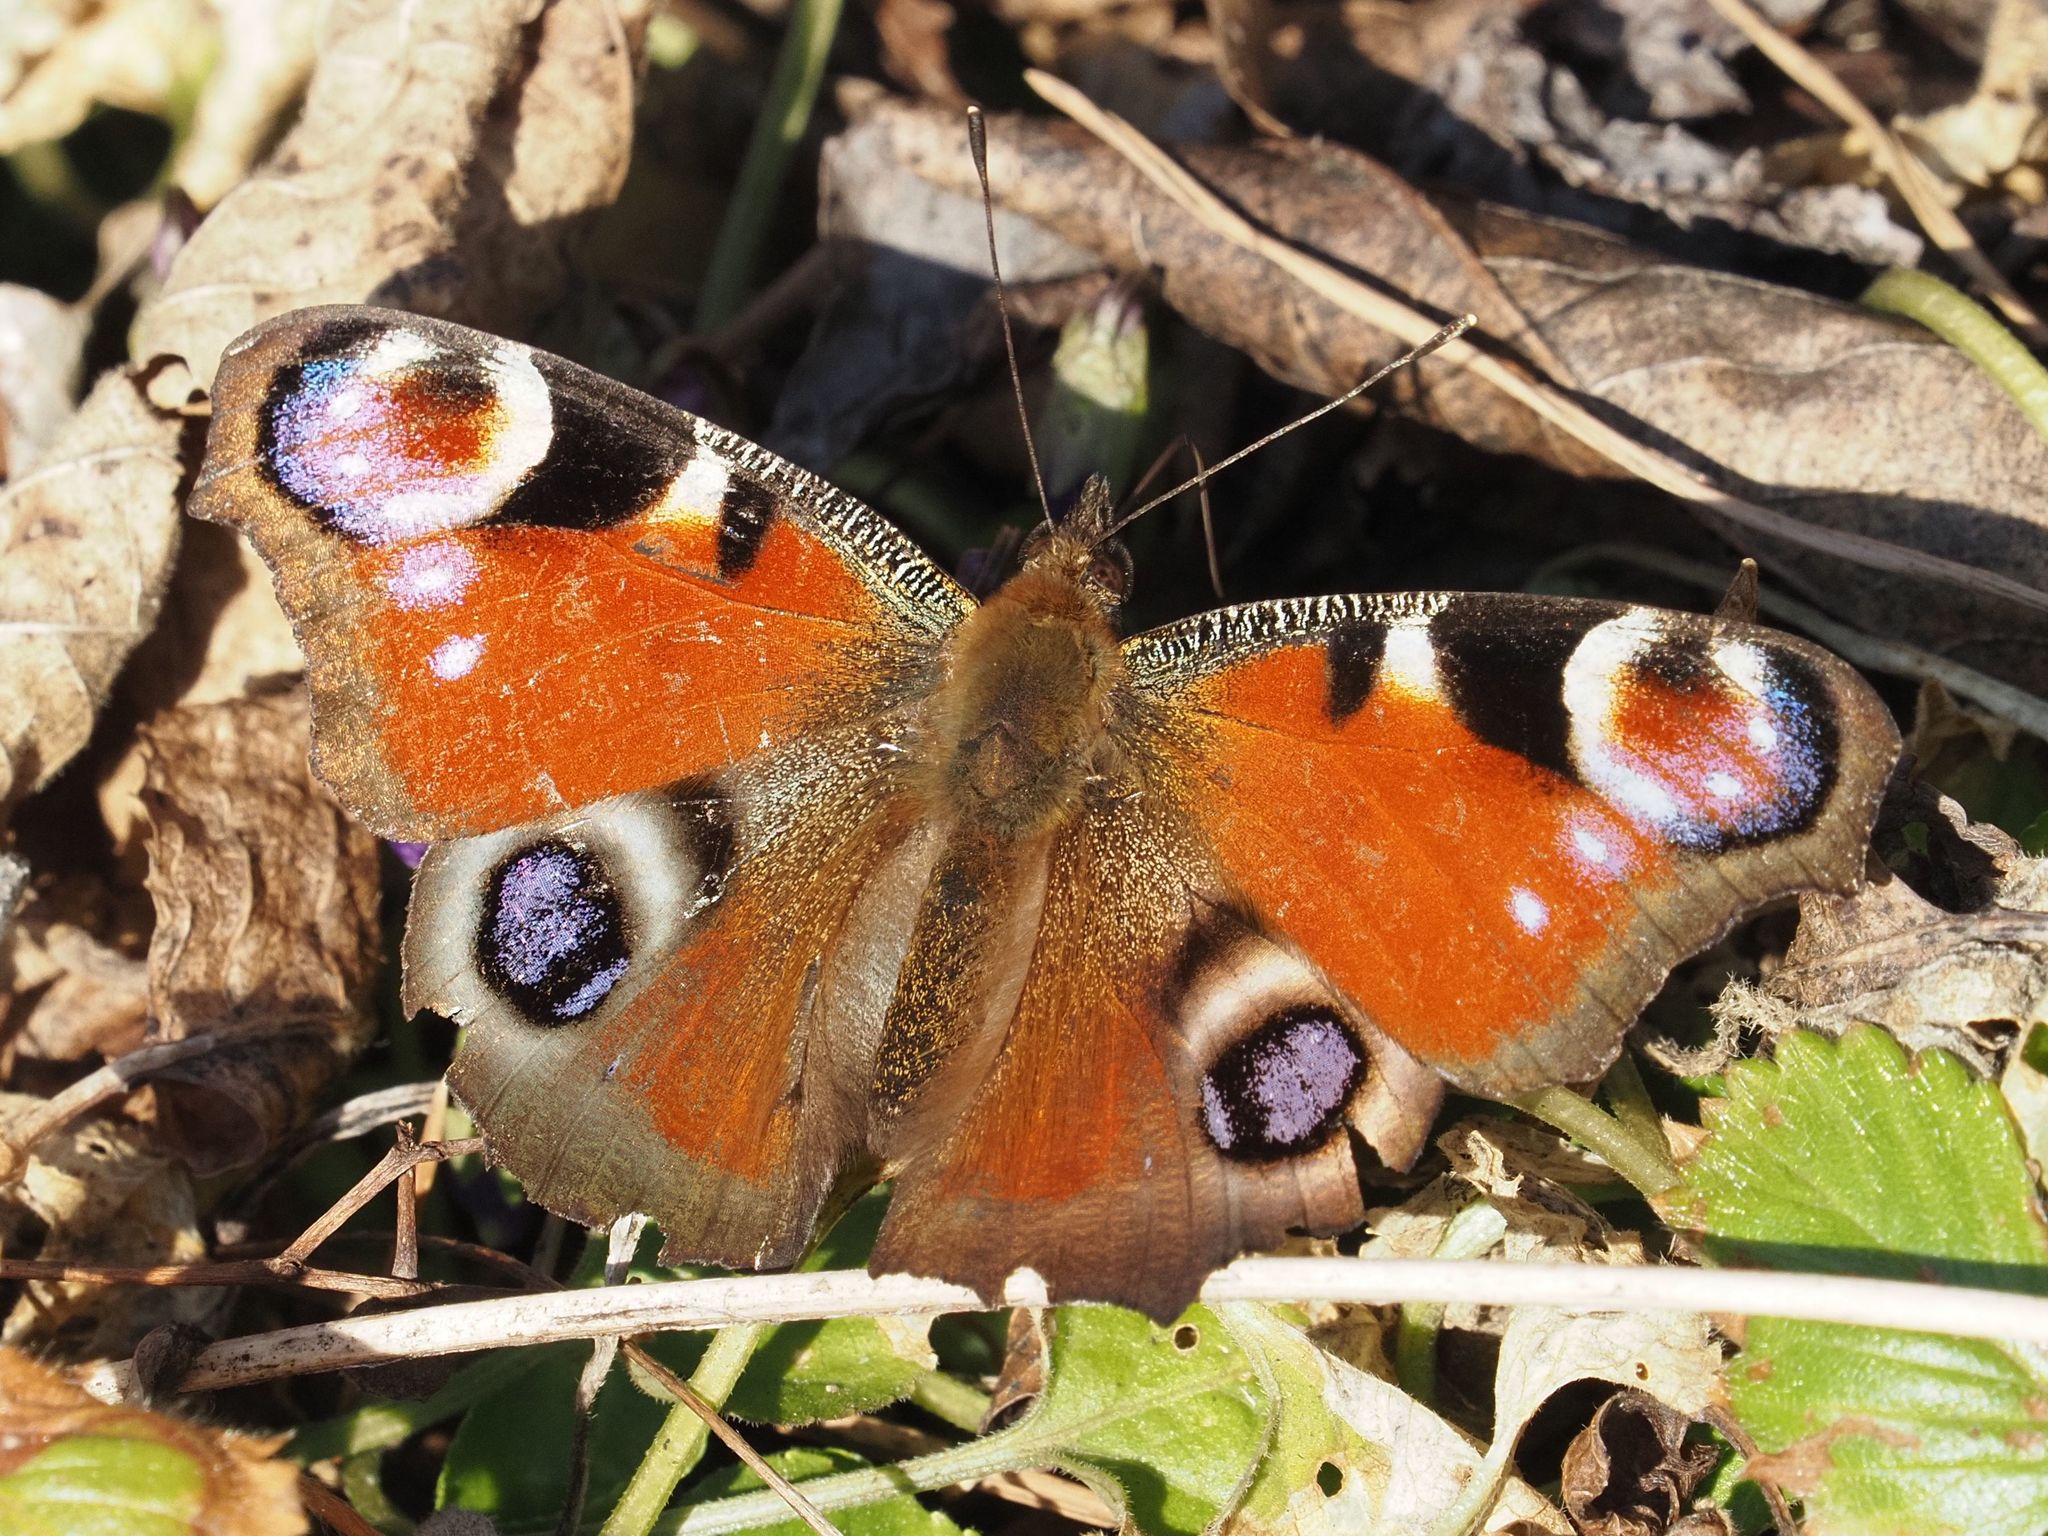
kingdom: Animalia
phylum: Arthropoda
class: Insecta
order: Lepidoptera
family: Nymphalidae
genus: Aglais
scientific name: Aglais io
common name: Peacock
